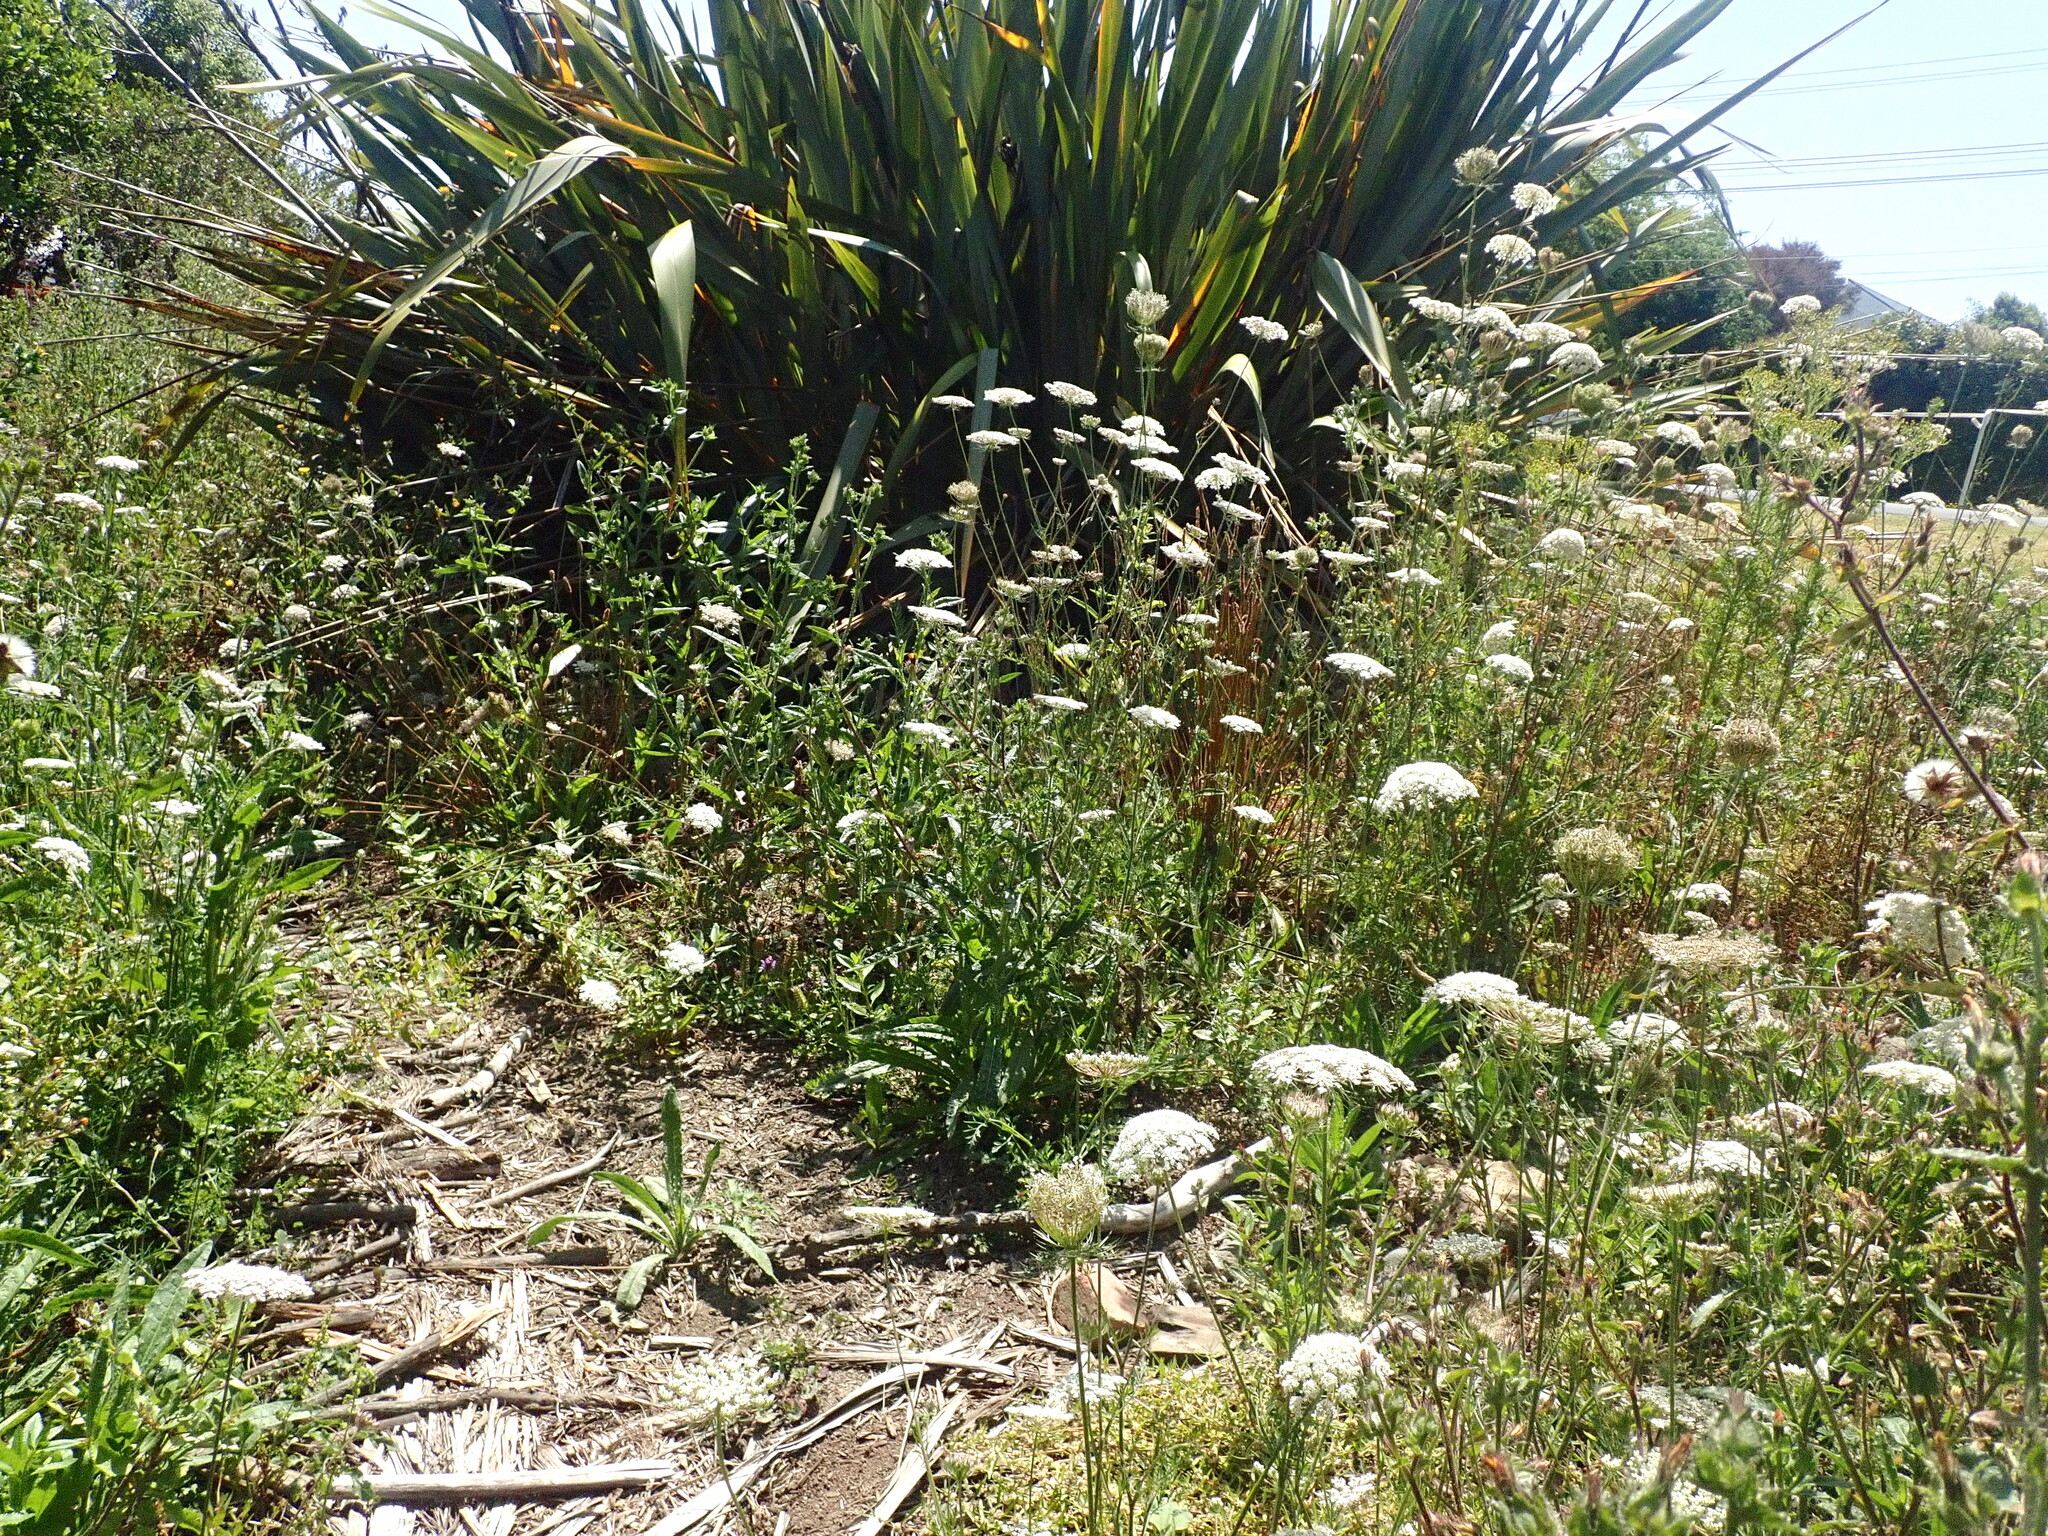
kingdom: Plantae
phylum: Tracheophyta
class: Magnoliopsida
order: Apiales
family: Apiaceae
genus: Daucus
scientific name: Daucus carota
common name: Wild carrot
